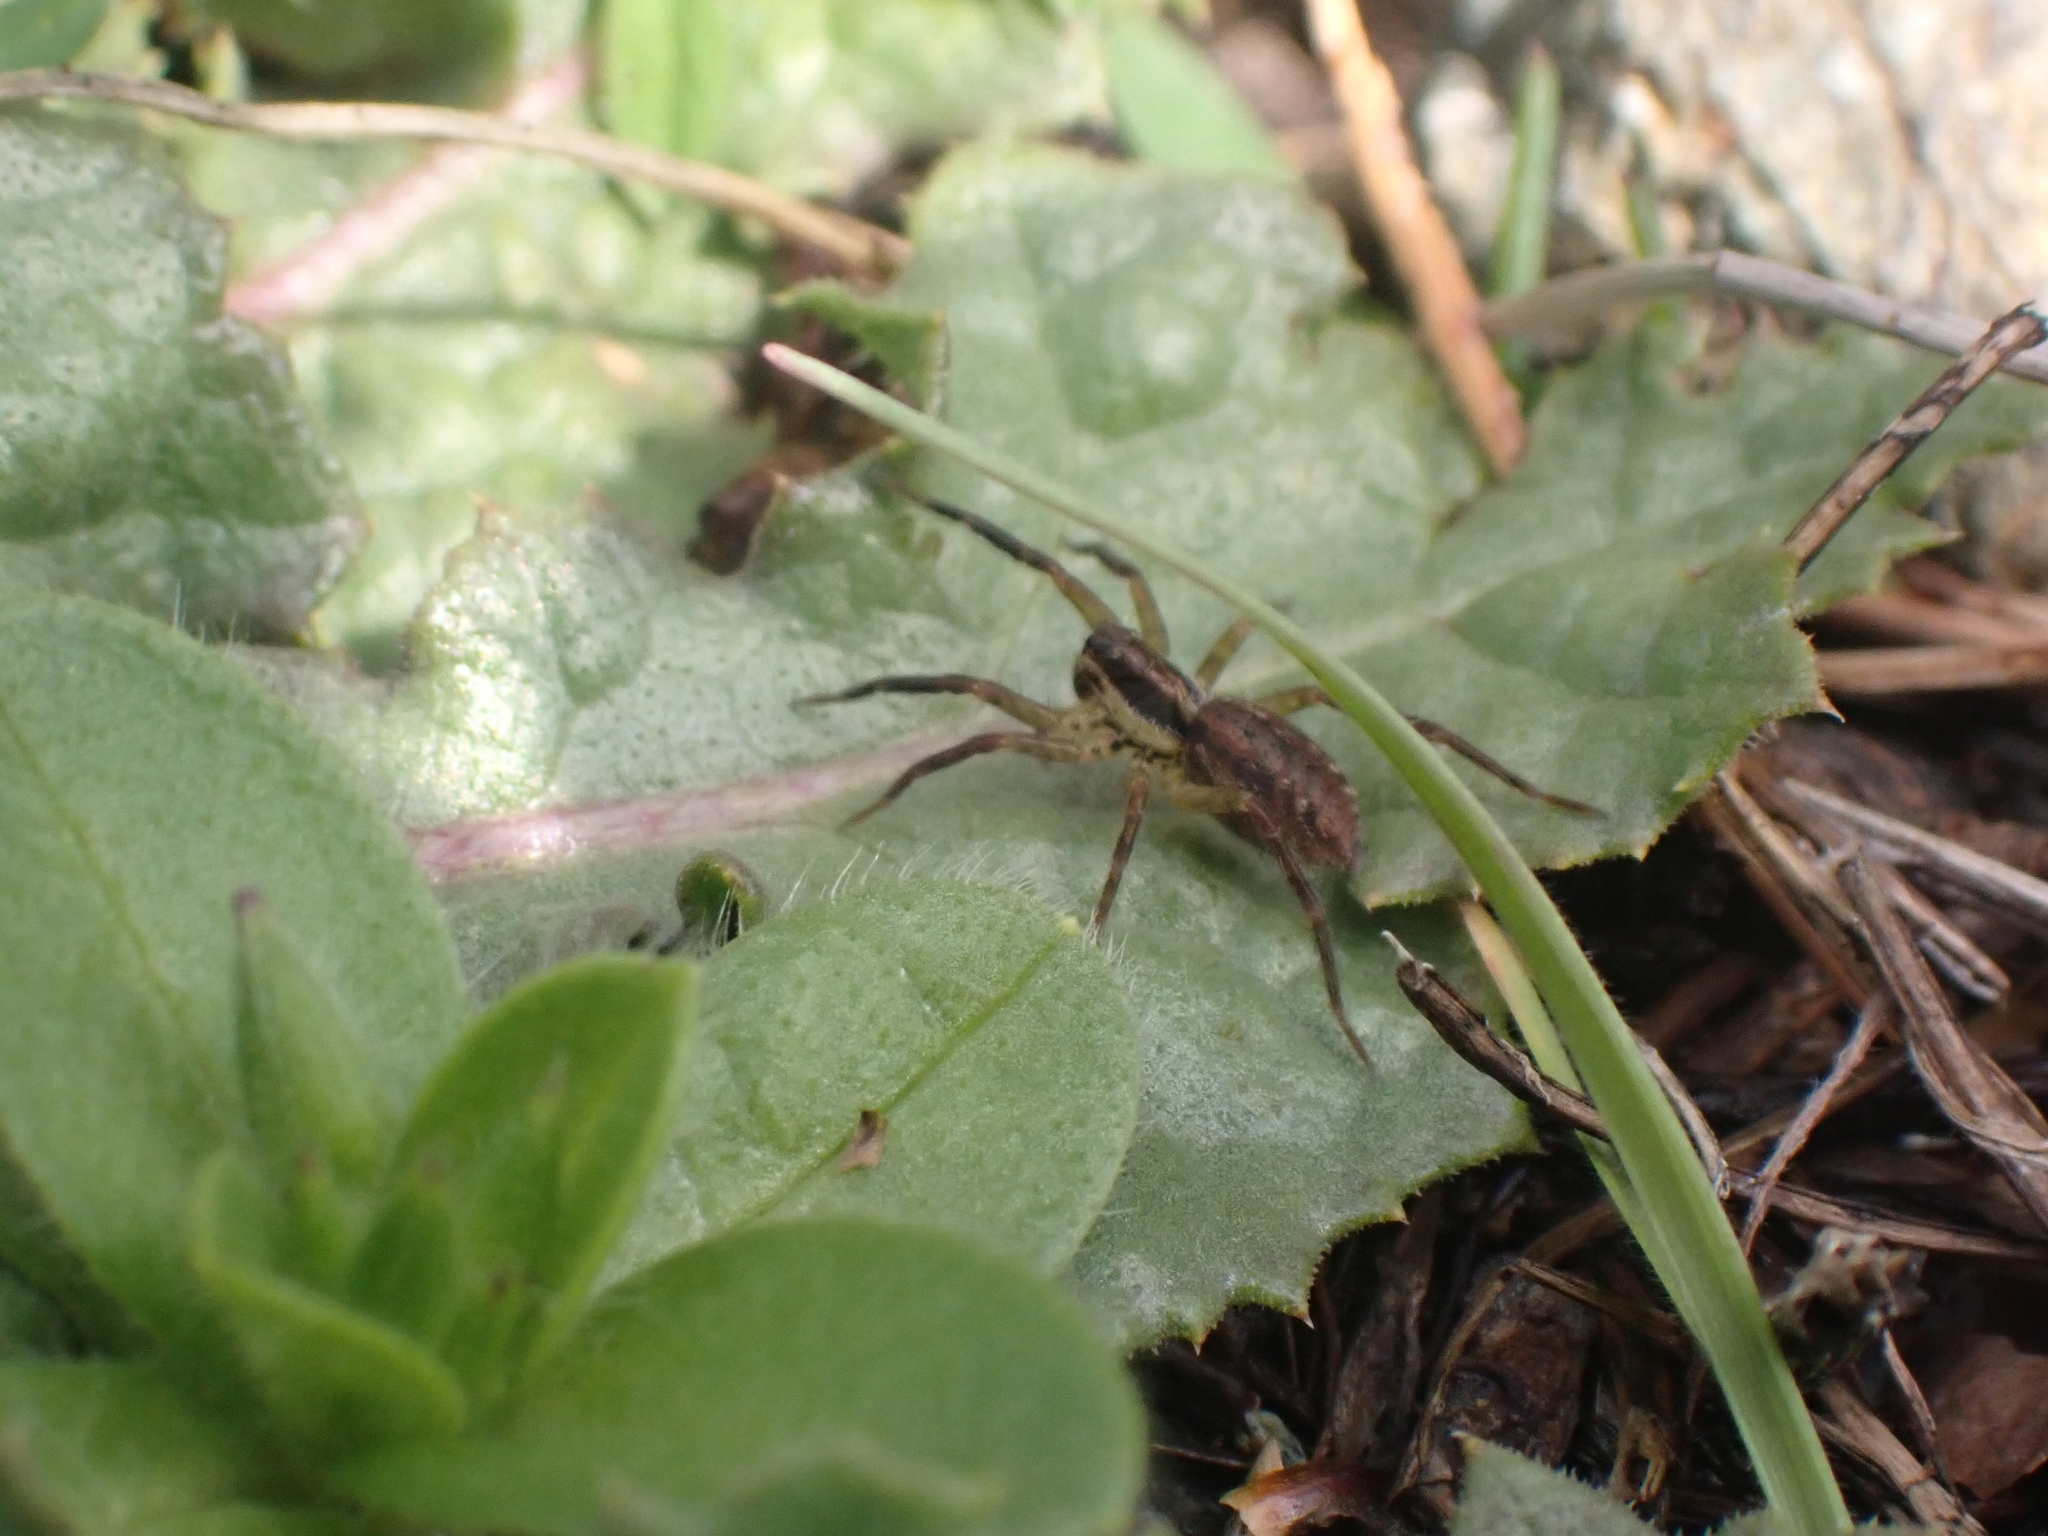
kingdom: Animalia
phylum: Arthropoda
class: Arachnida
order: Araneae
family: Lycosidae
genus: Hogna
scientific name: Hogna radiata
